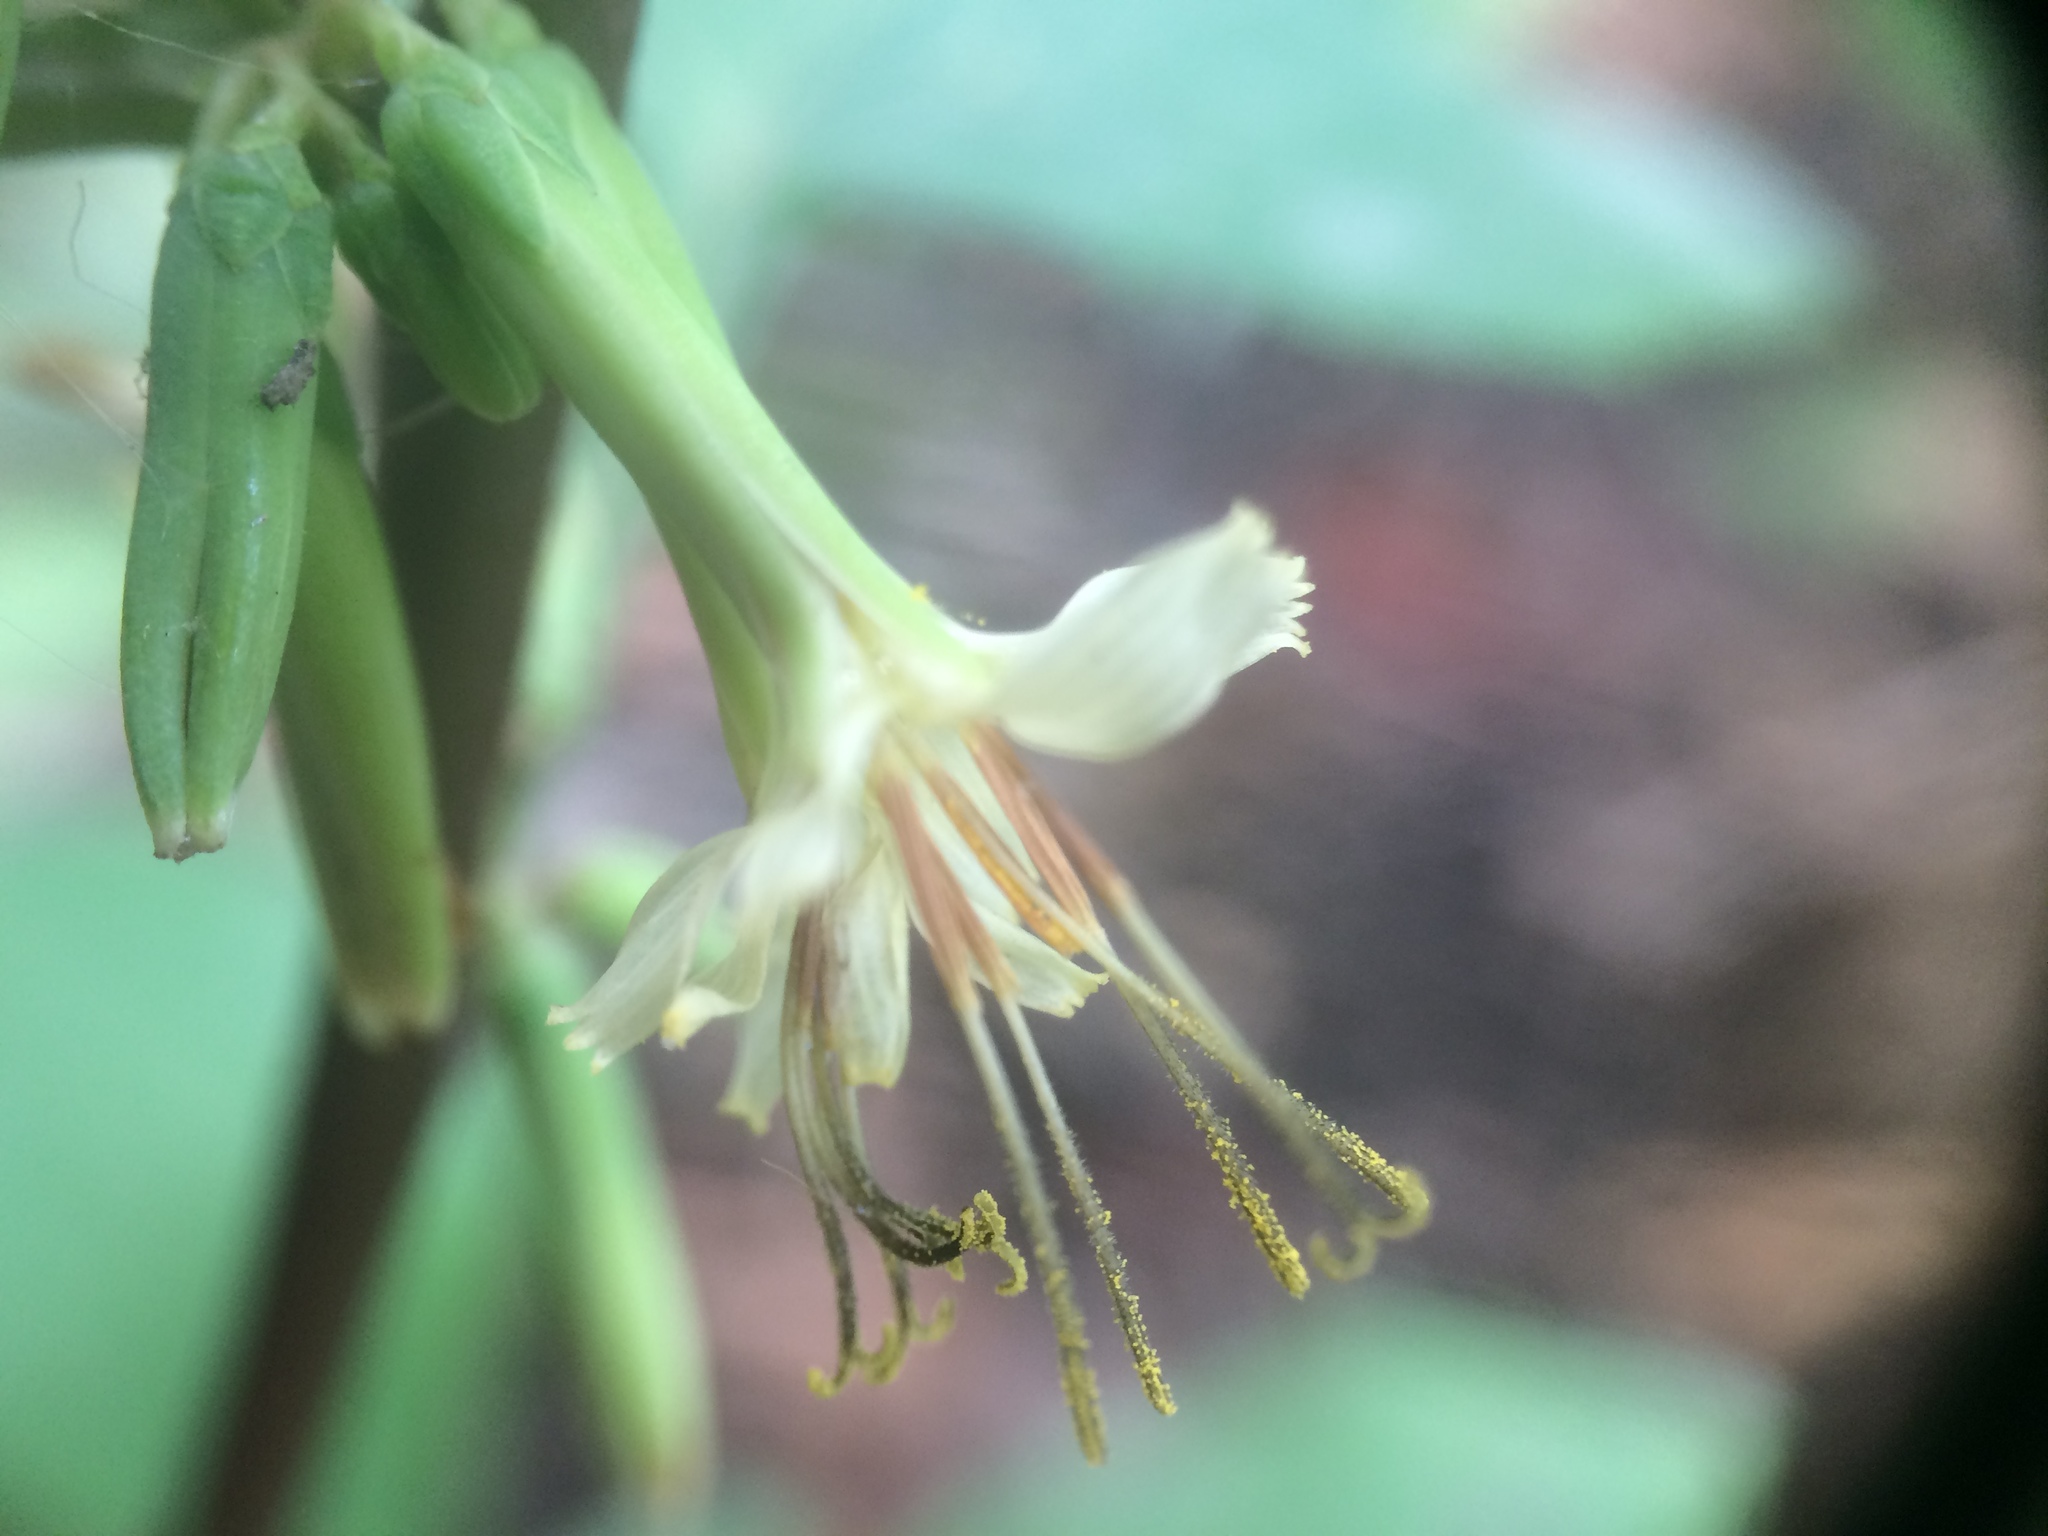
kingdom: Plantae
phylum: Tracheophyta
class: Magnoliopsida
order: Asterales
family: Asteraceae
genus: Nabalus
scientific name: Nabalus altissima
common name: Tall rattlesnakeroot
